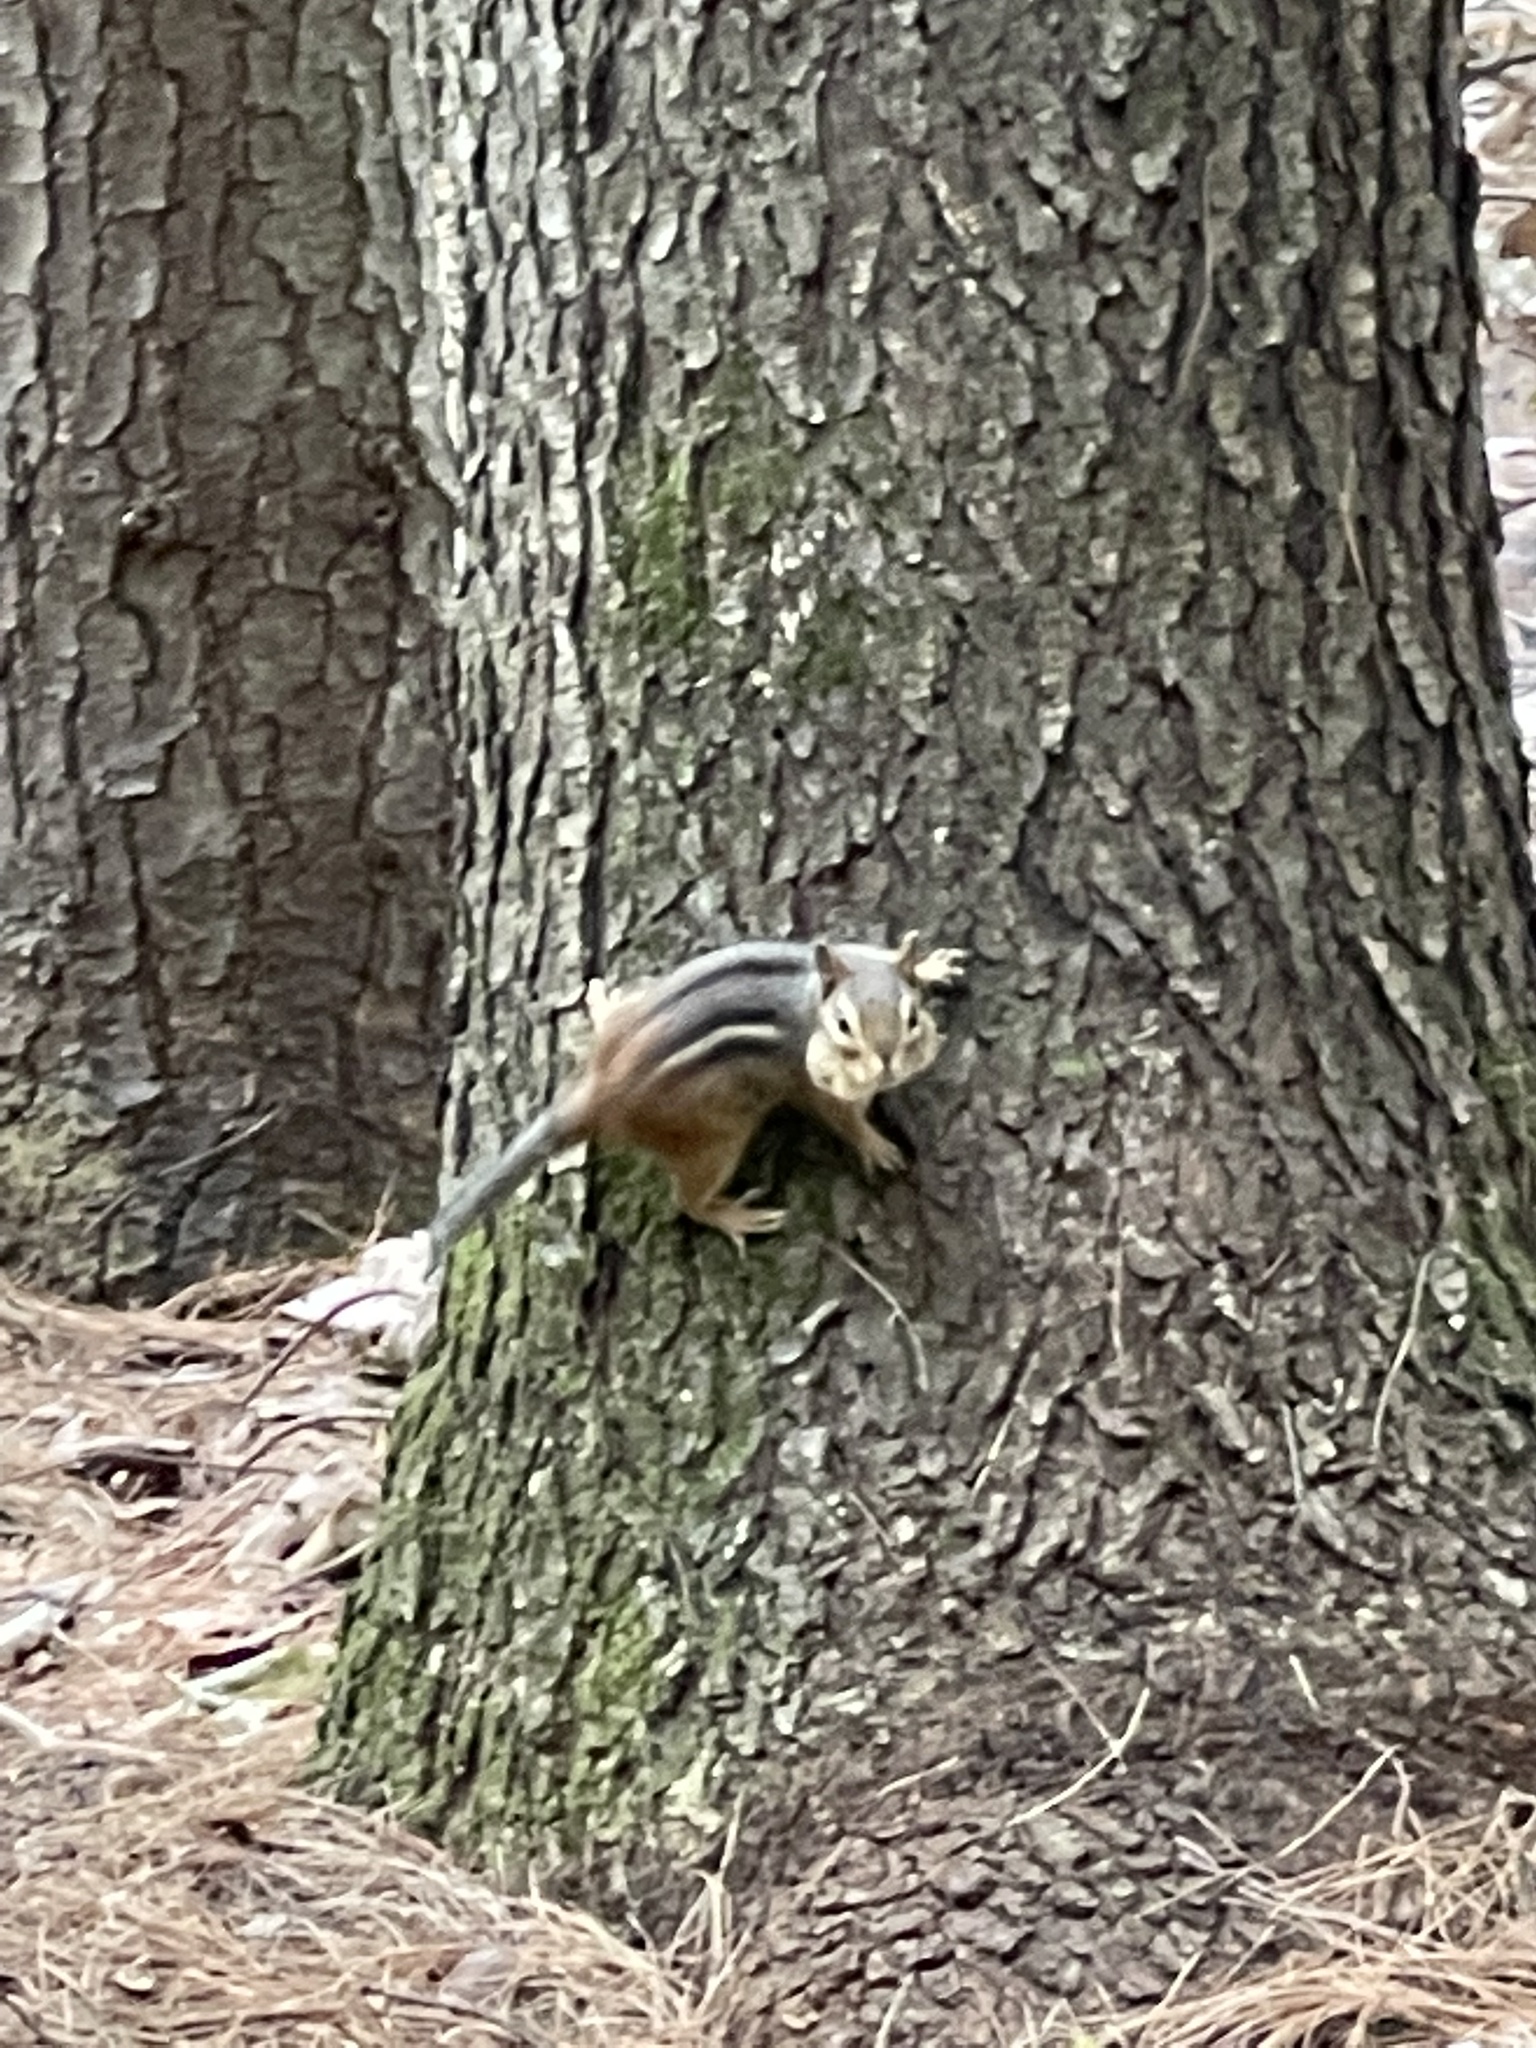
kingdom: Animalia
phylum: Chordata
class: Mammalia
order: Rodentia
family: Sciuridae
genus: Tamias
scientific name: Tamias striatus
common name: Eastern chipmunk
